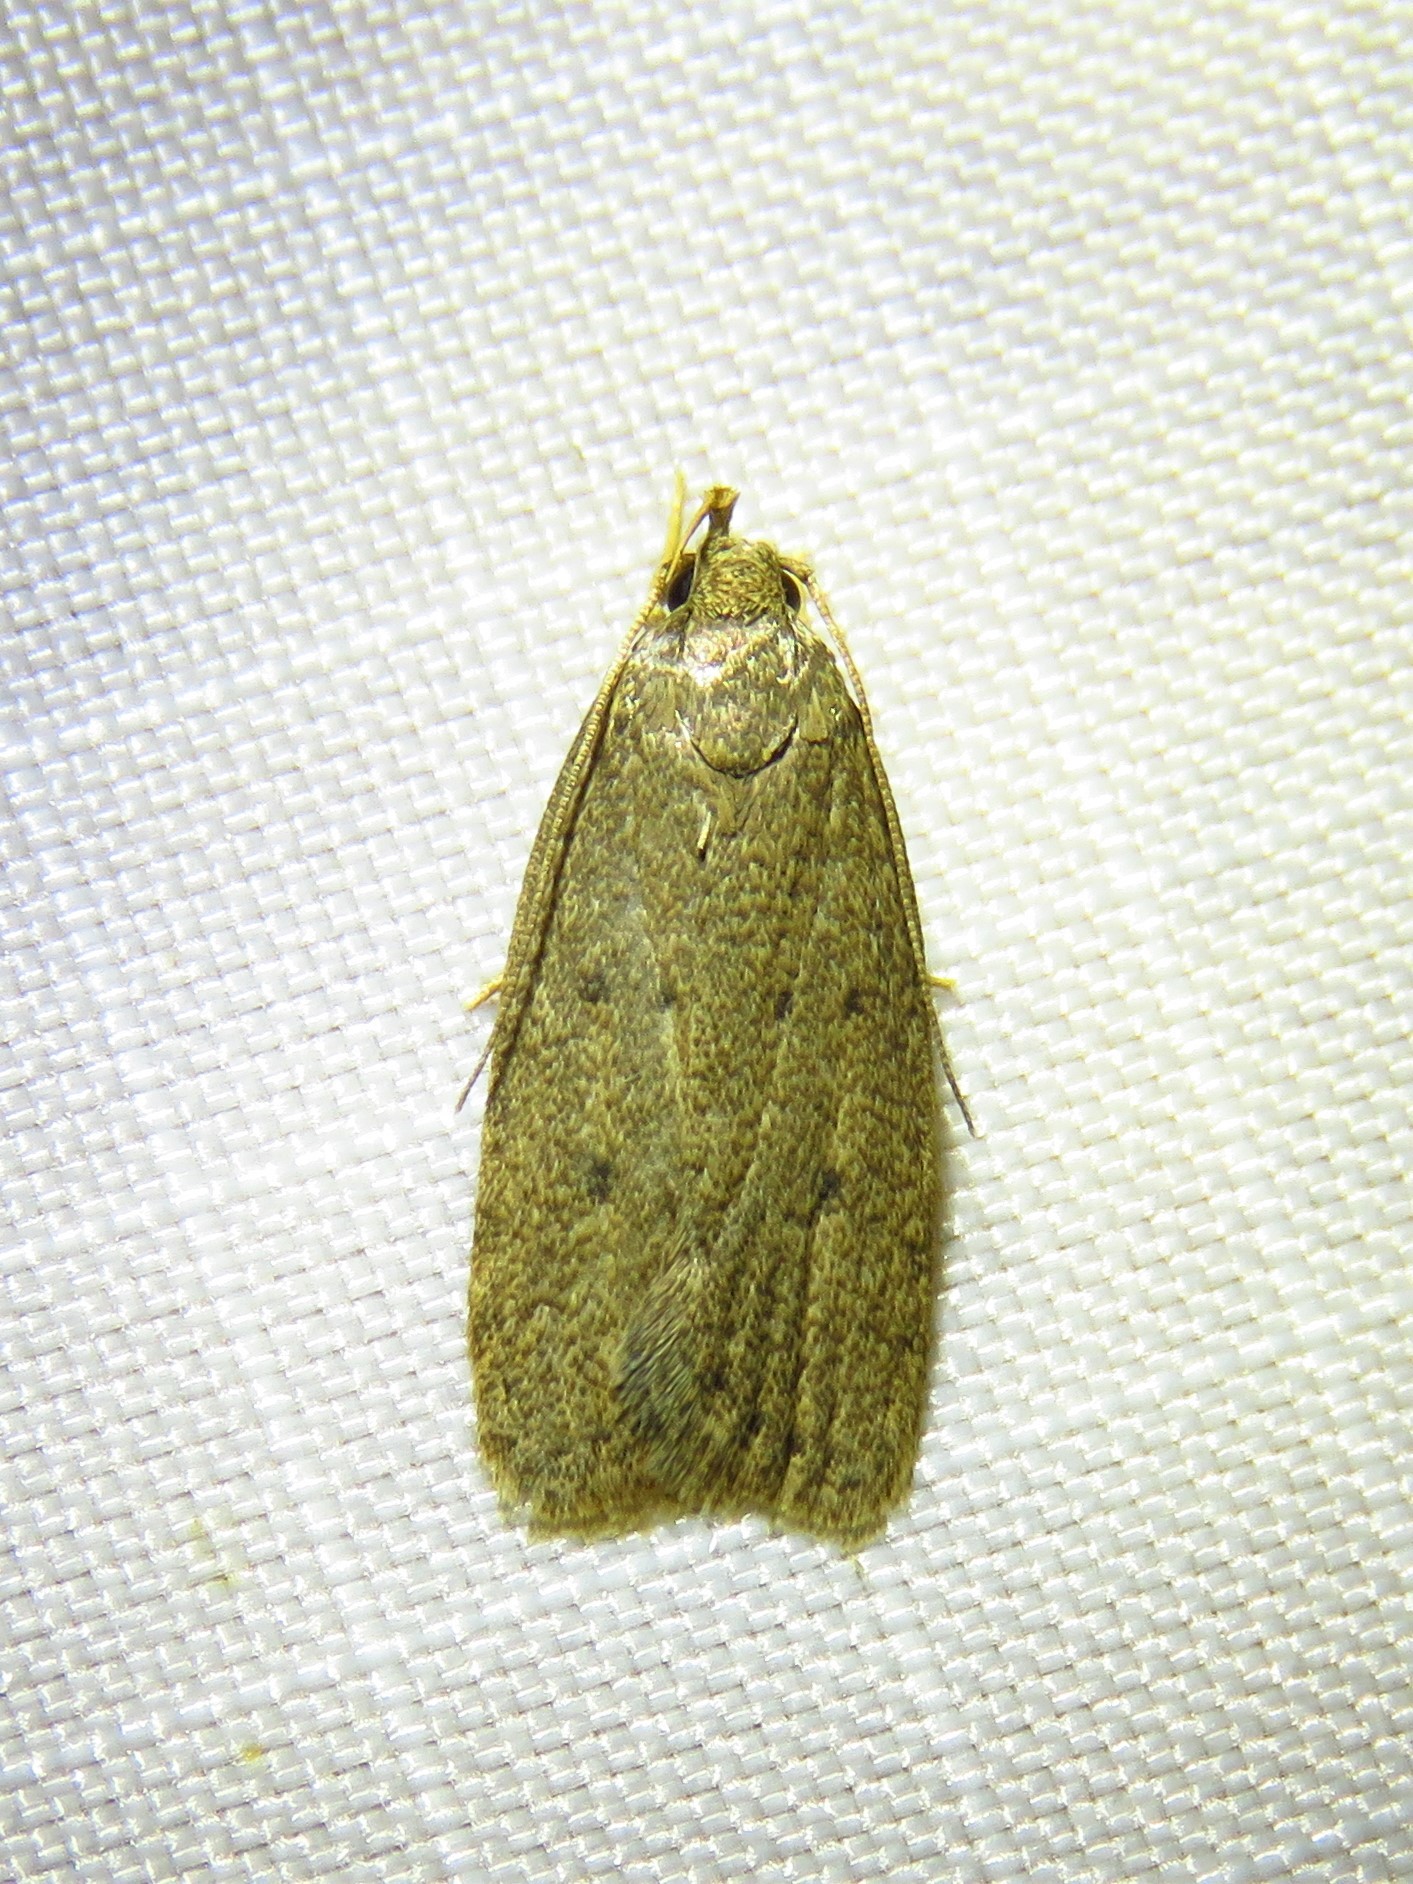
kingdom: Animalia
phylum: Arthropoda
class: Insecta
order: Lepidoptera
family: Autostichidae
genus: Autosticha
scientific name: Autosticha kyotensis
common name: Kyoto moth
